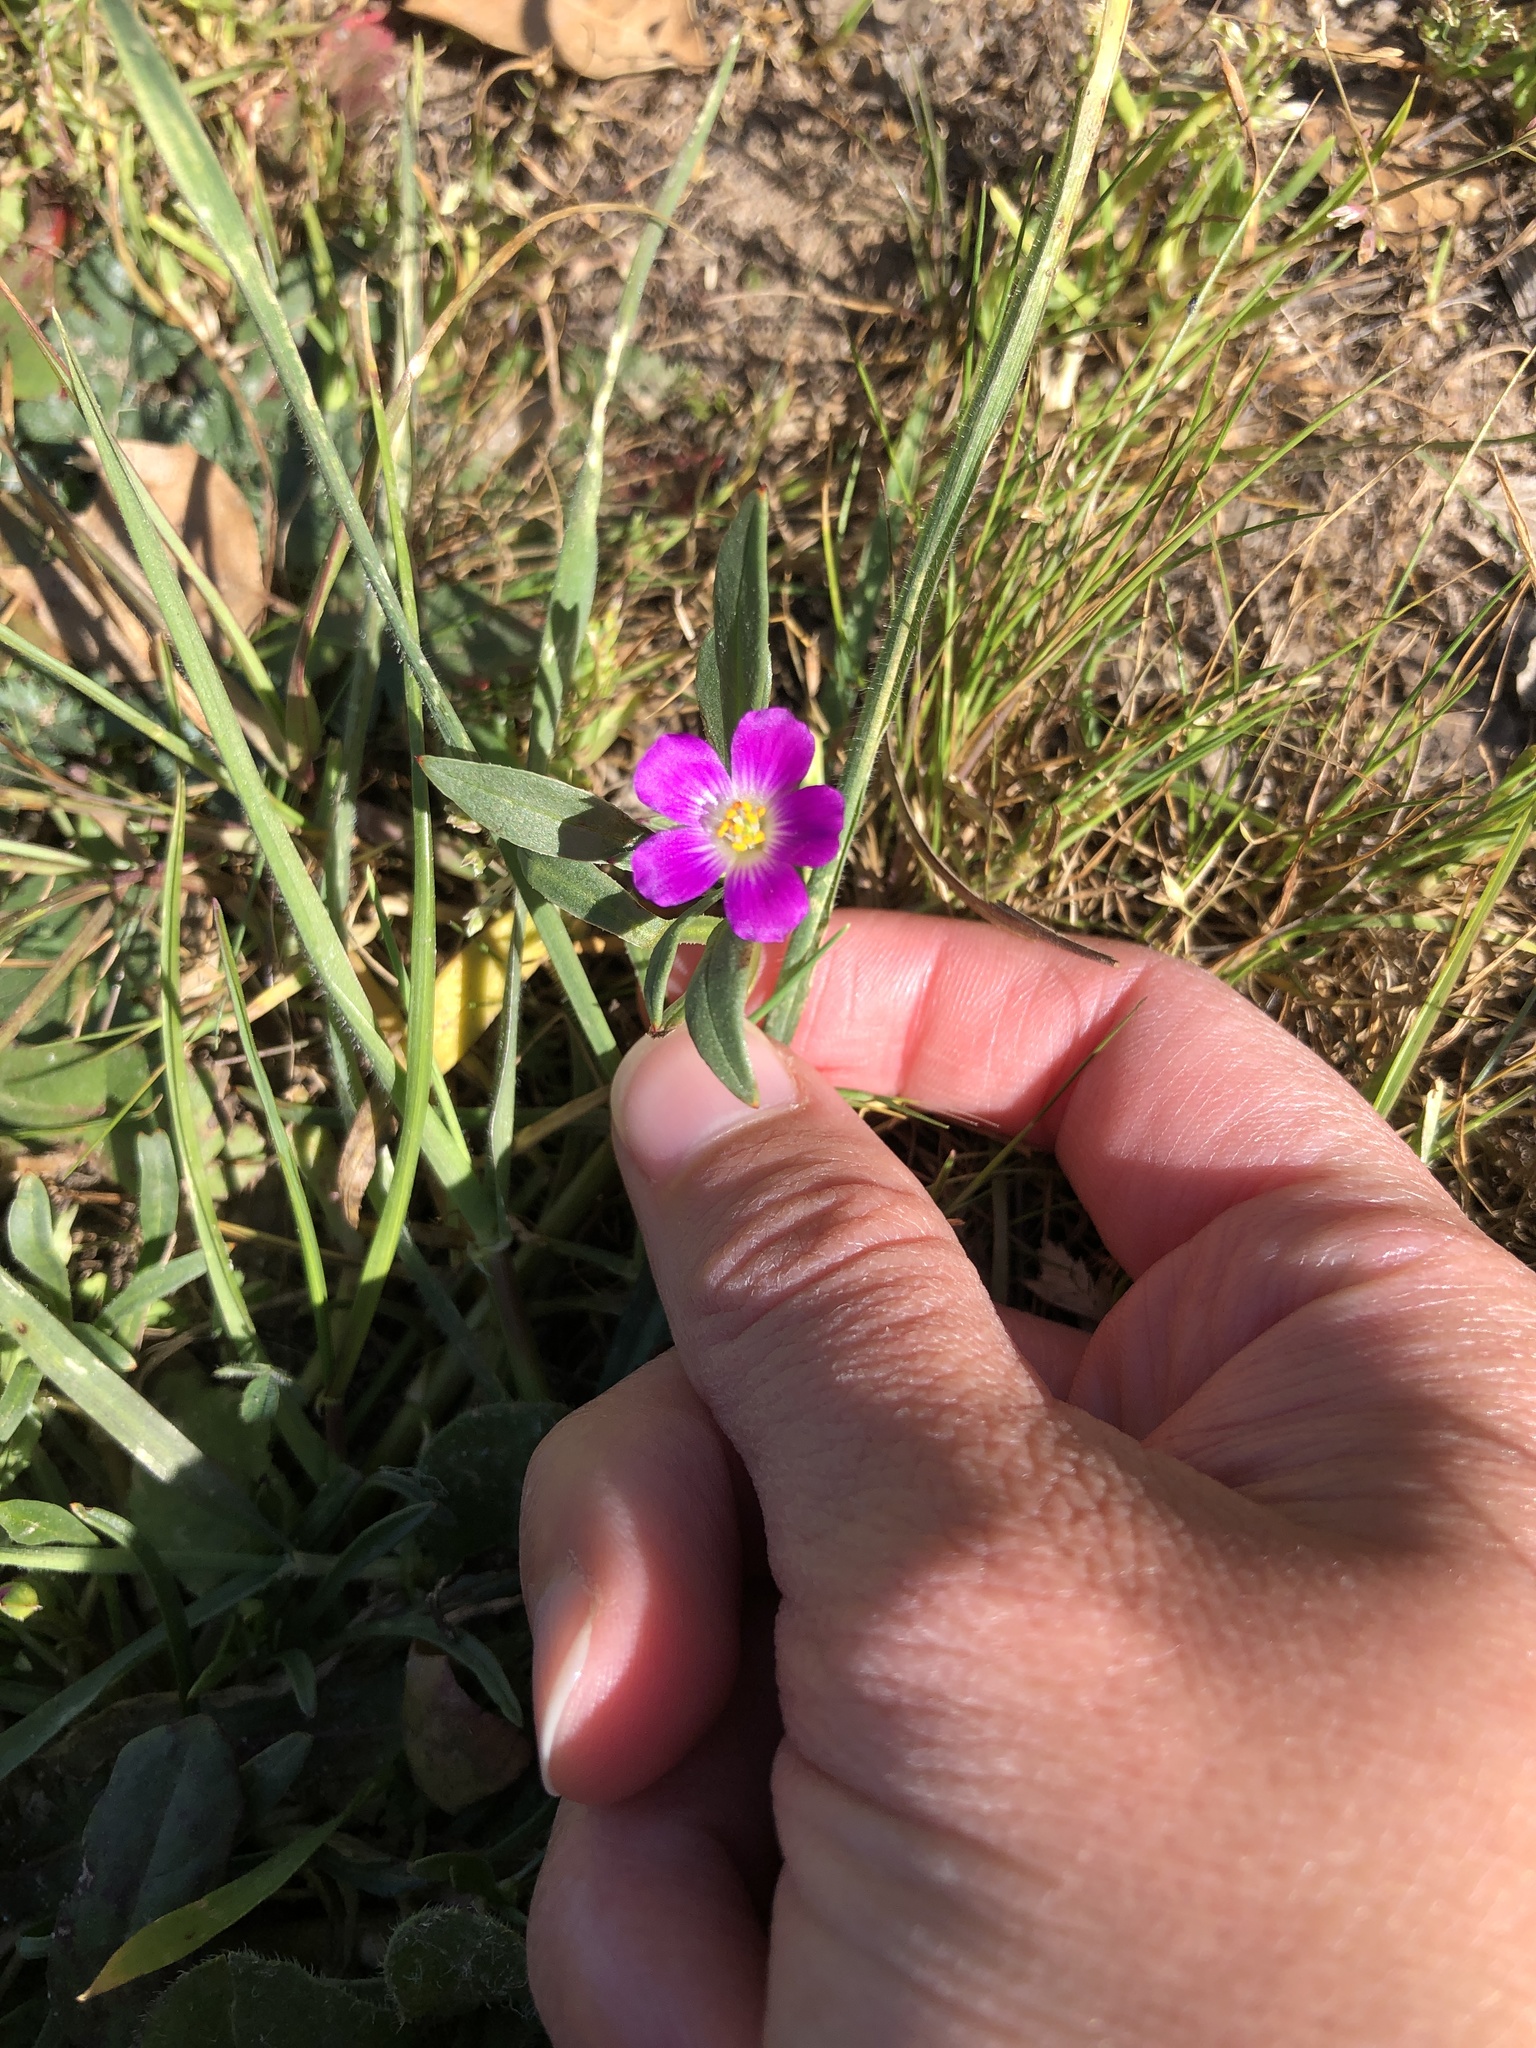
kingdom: Plantae
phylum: Tracheophyta
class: Magnoliopsida
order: Caryophyllales
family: Montiaceae
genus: Calandrinia
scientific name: Calandrinia menziesii
